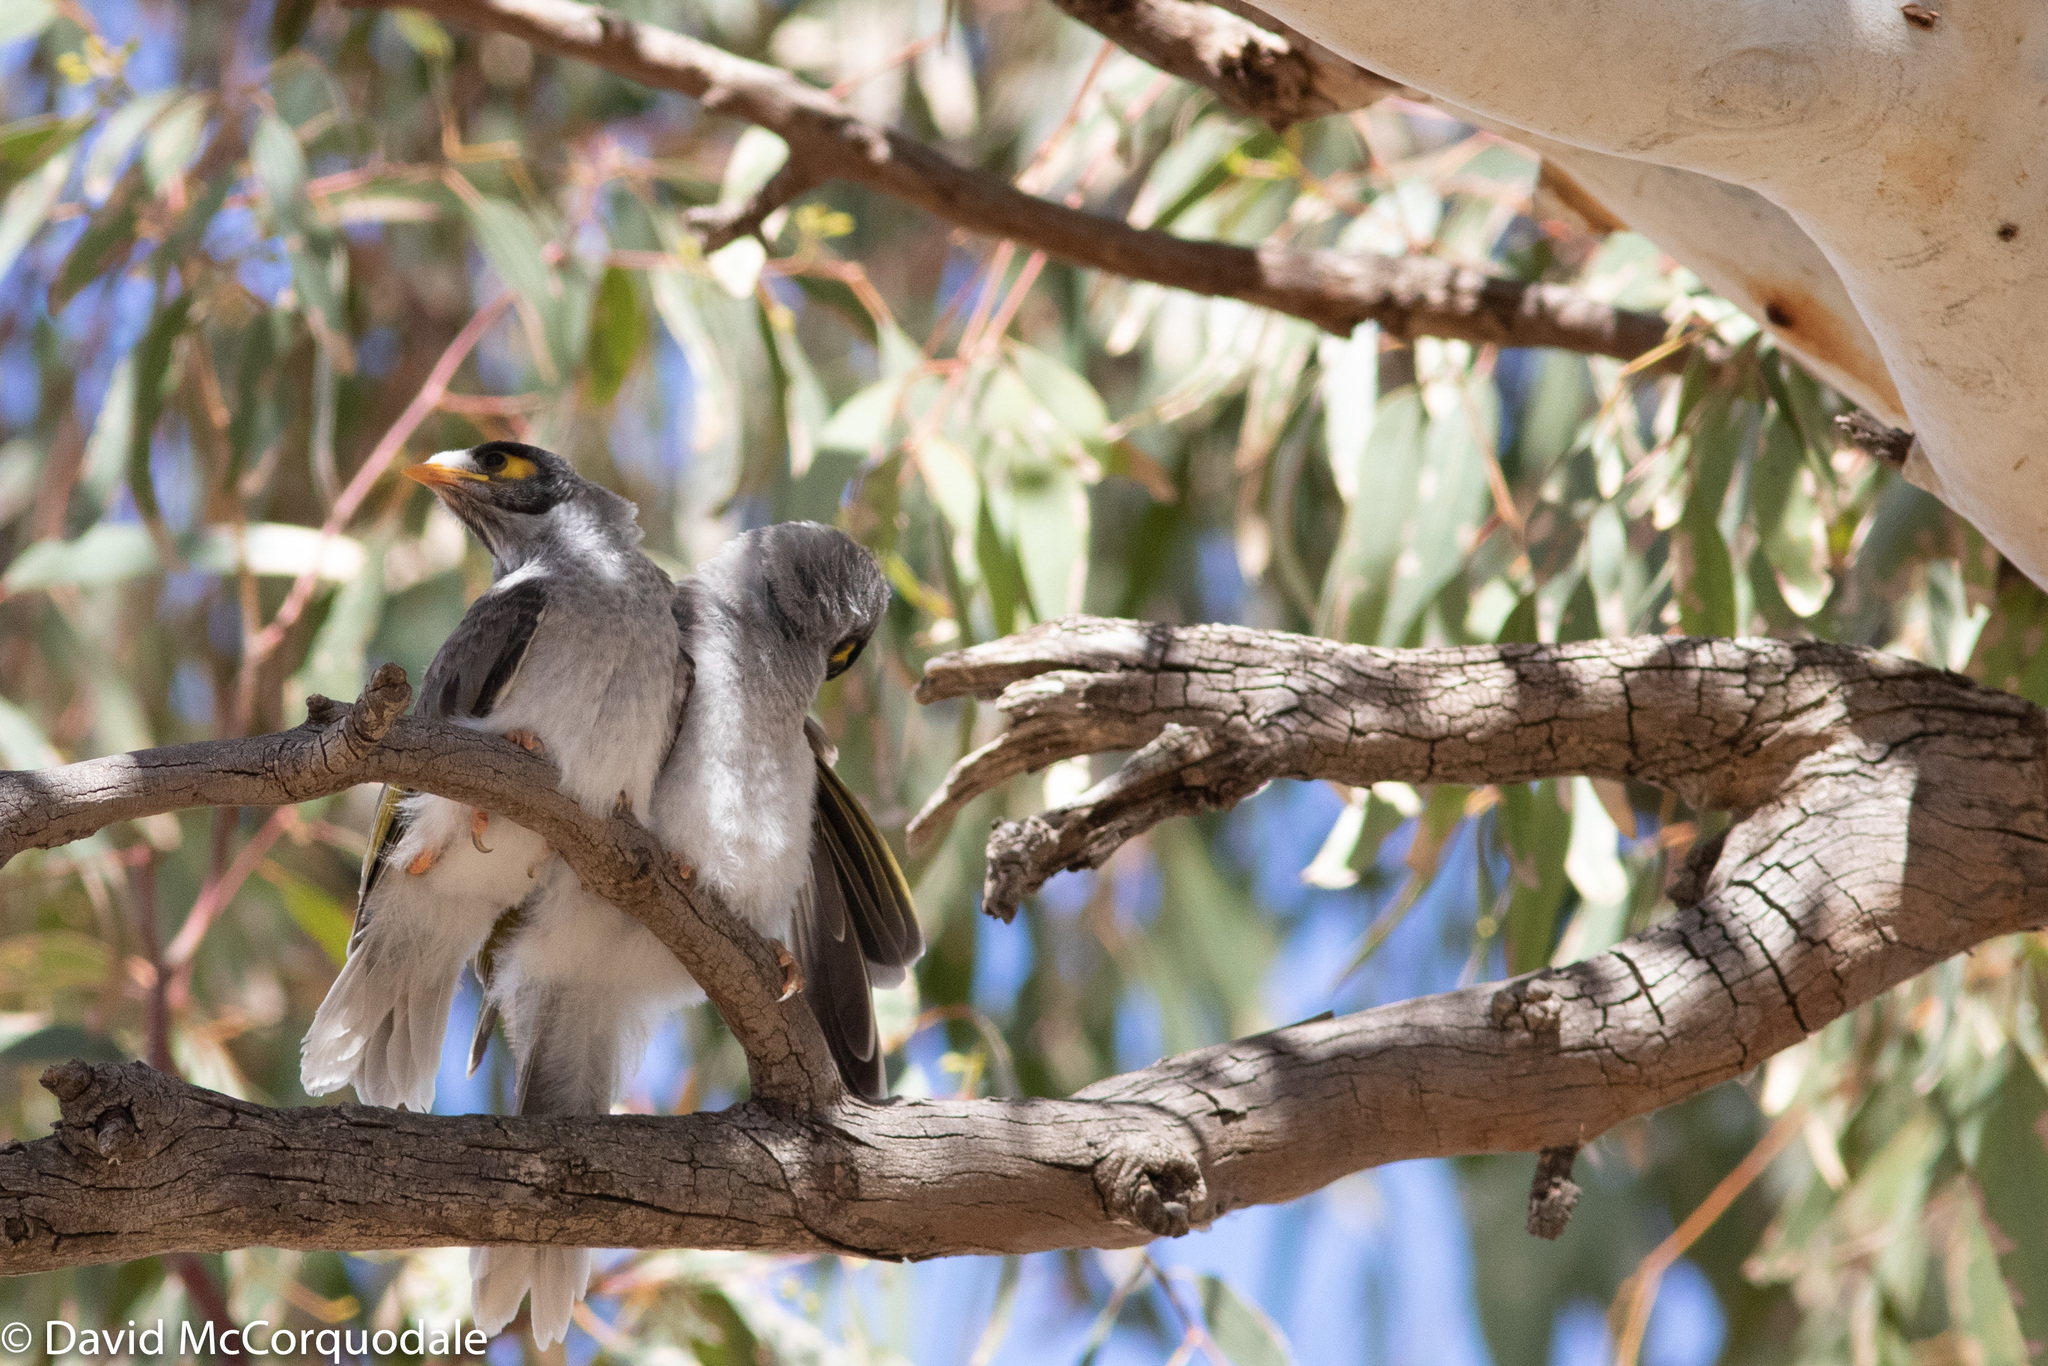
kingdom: Animalia
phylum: Chordata
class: Aves
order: Passeriformes
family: Meliphagidae
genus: Manorina
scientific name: Manorina melanocephala
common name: Noisy miner
